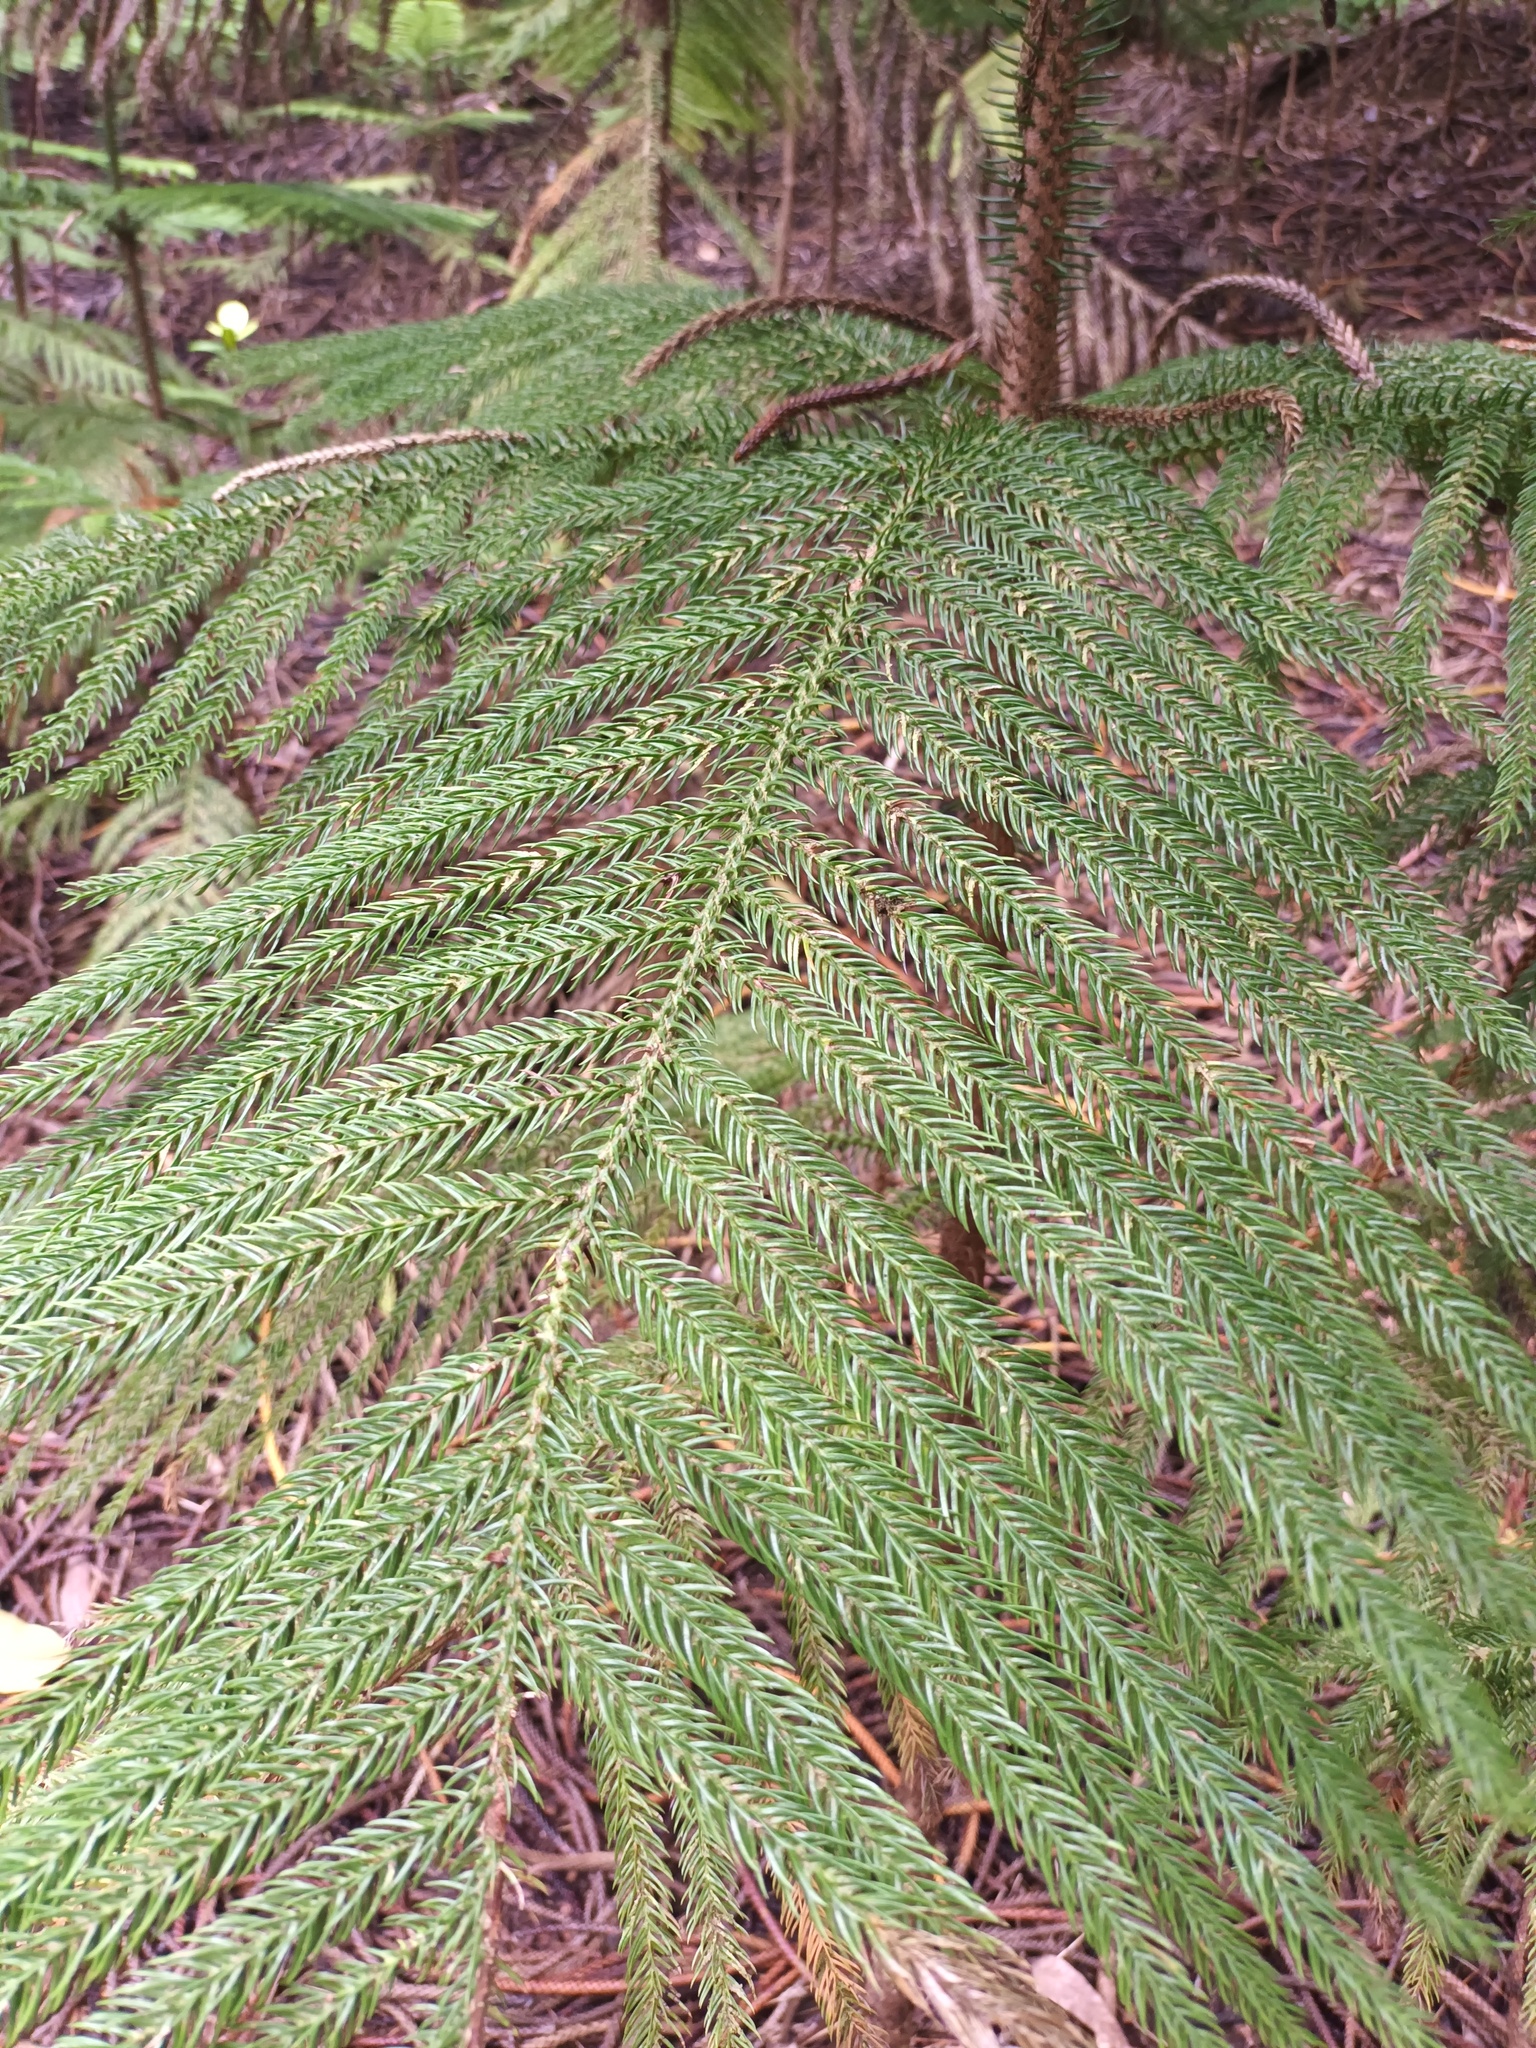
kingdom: Plantae
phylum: Tracheophyta
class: Pinopsida
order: Pinales
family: Araucariaceae
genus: Araucaria
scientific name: Araucaria columnaris
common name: Coral reef araucaria
